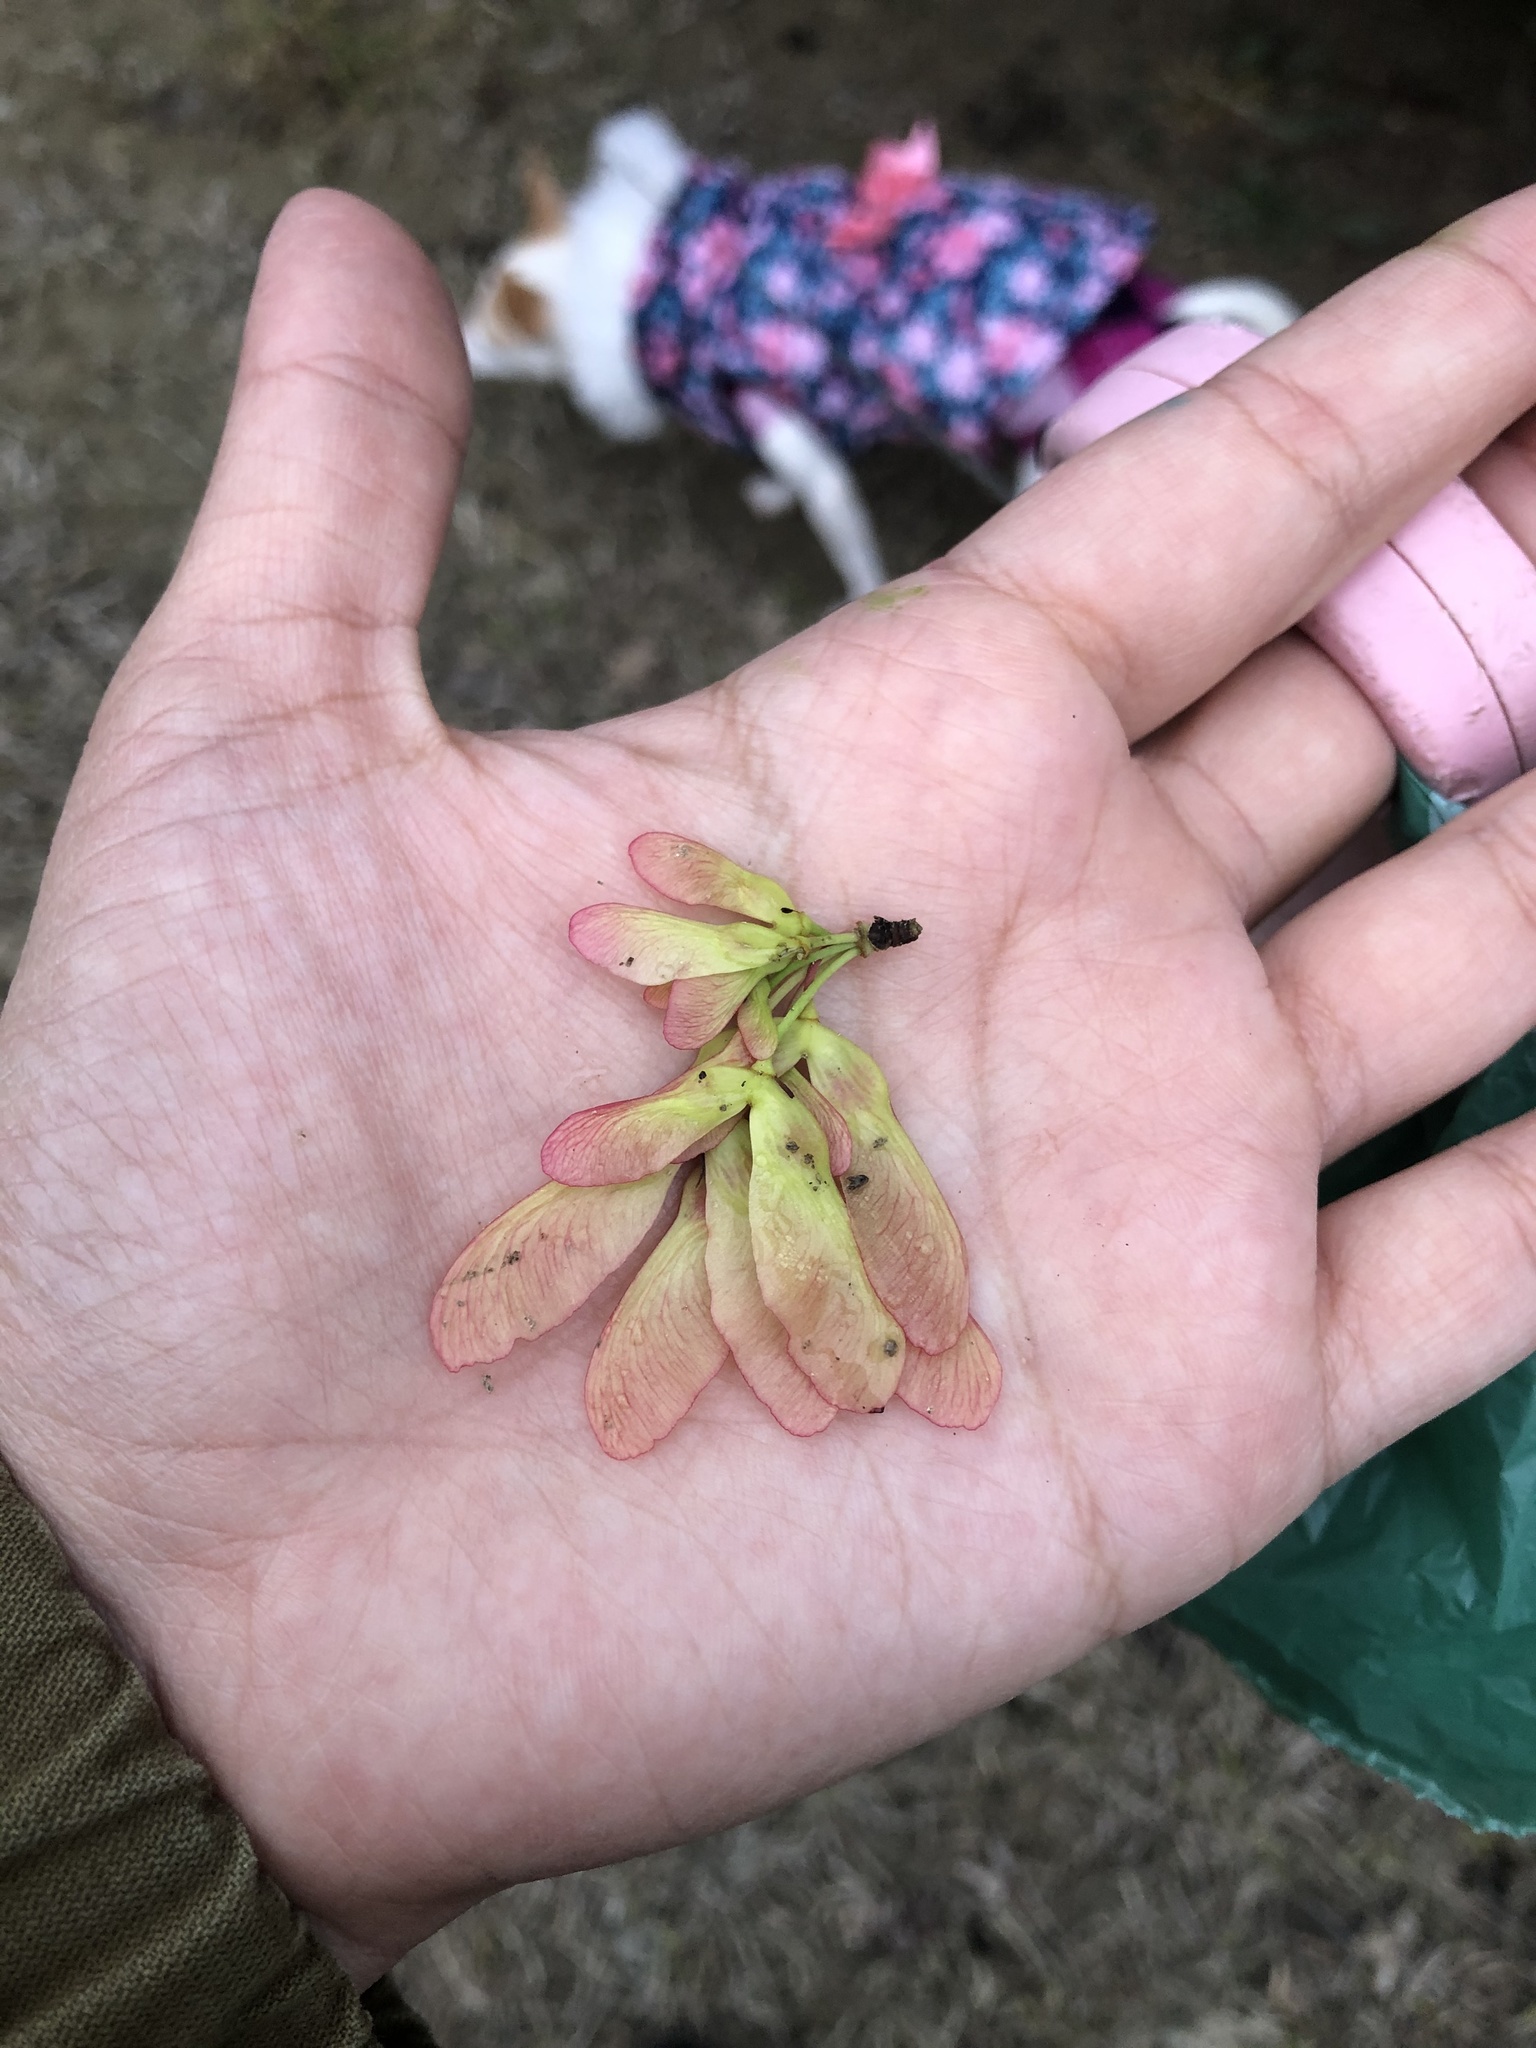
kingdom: Plantae
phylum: Tracheophyta
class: Magnoliopsida
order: Sapindales
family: Sapindaceae
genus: Acer
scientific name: Acer rubrum
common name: Red maple
